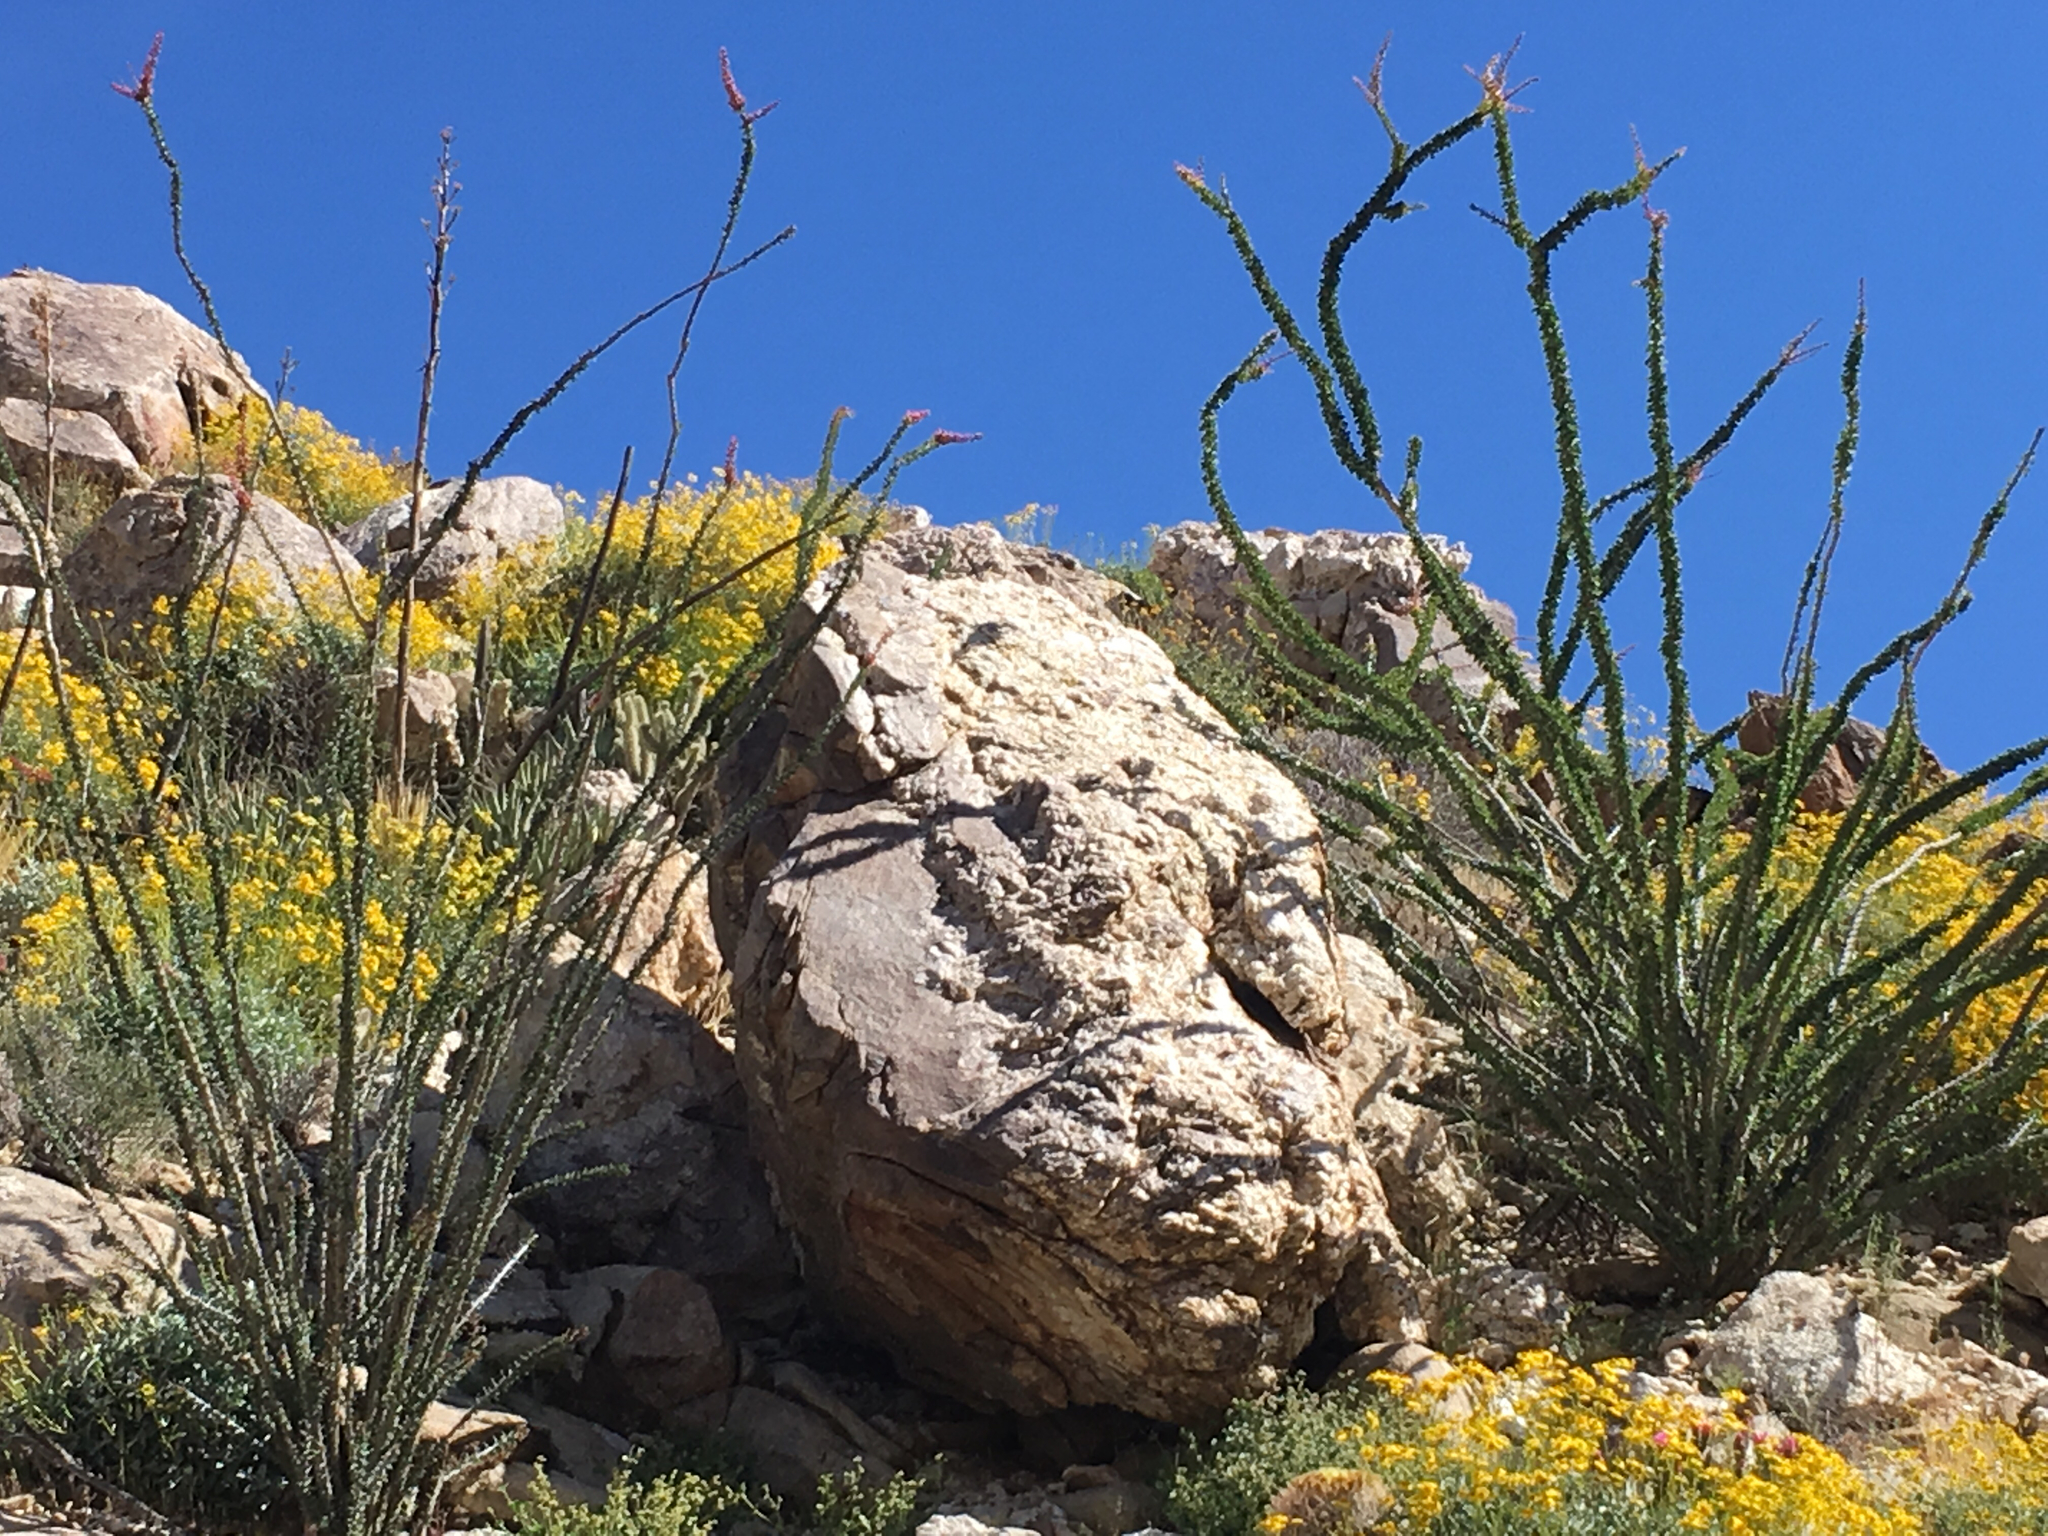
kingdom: Plantae
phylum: Tracheophyta
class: Magnoliopsida
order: Ericales
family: Fouquieriaceae
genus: Fouquieria
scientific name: Fouquieria splendens
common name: Vine-cactus
